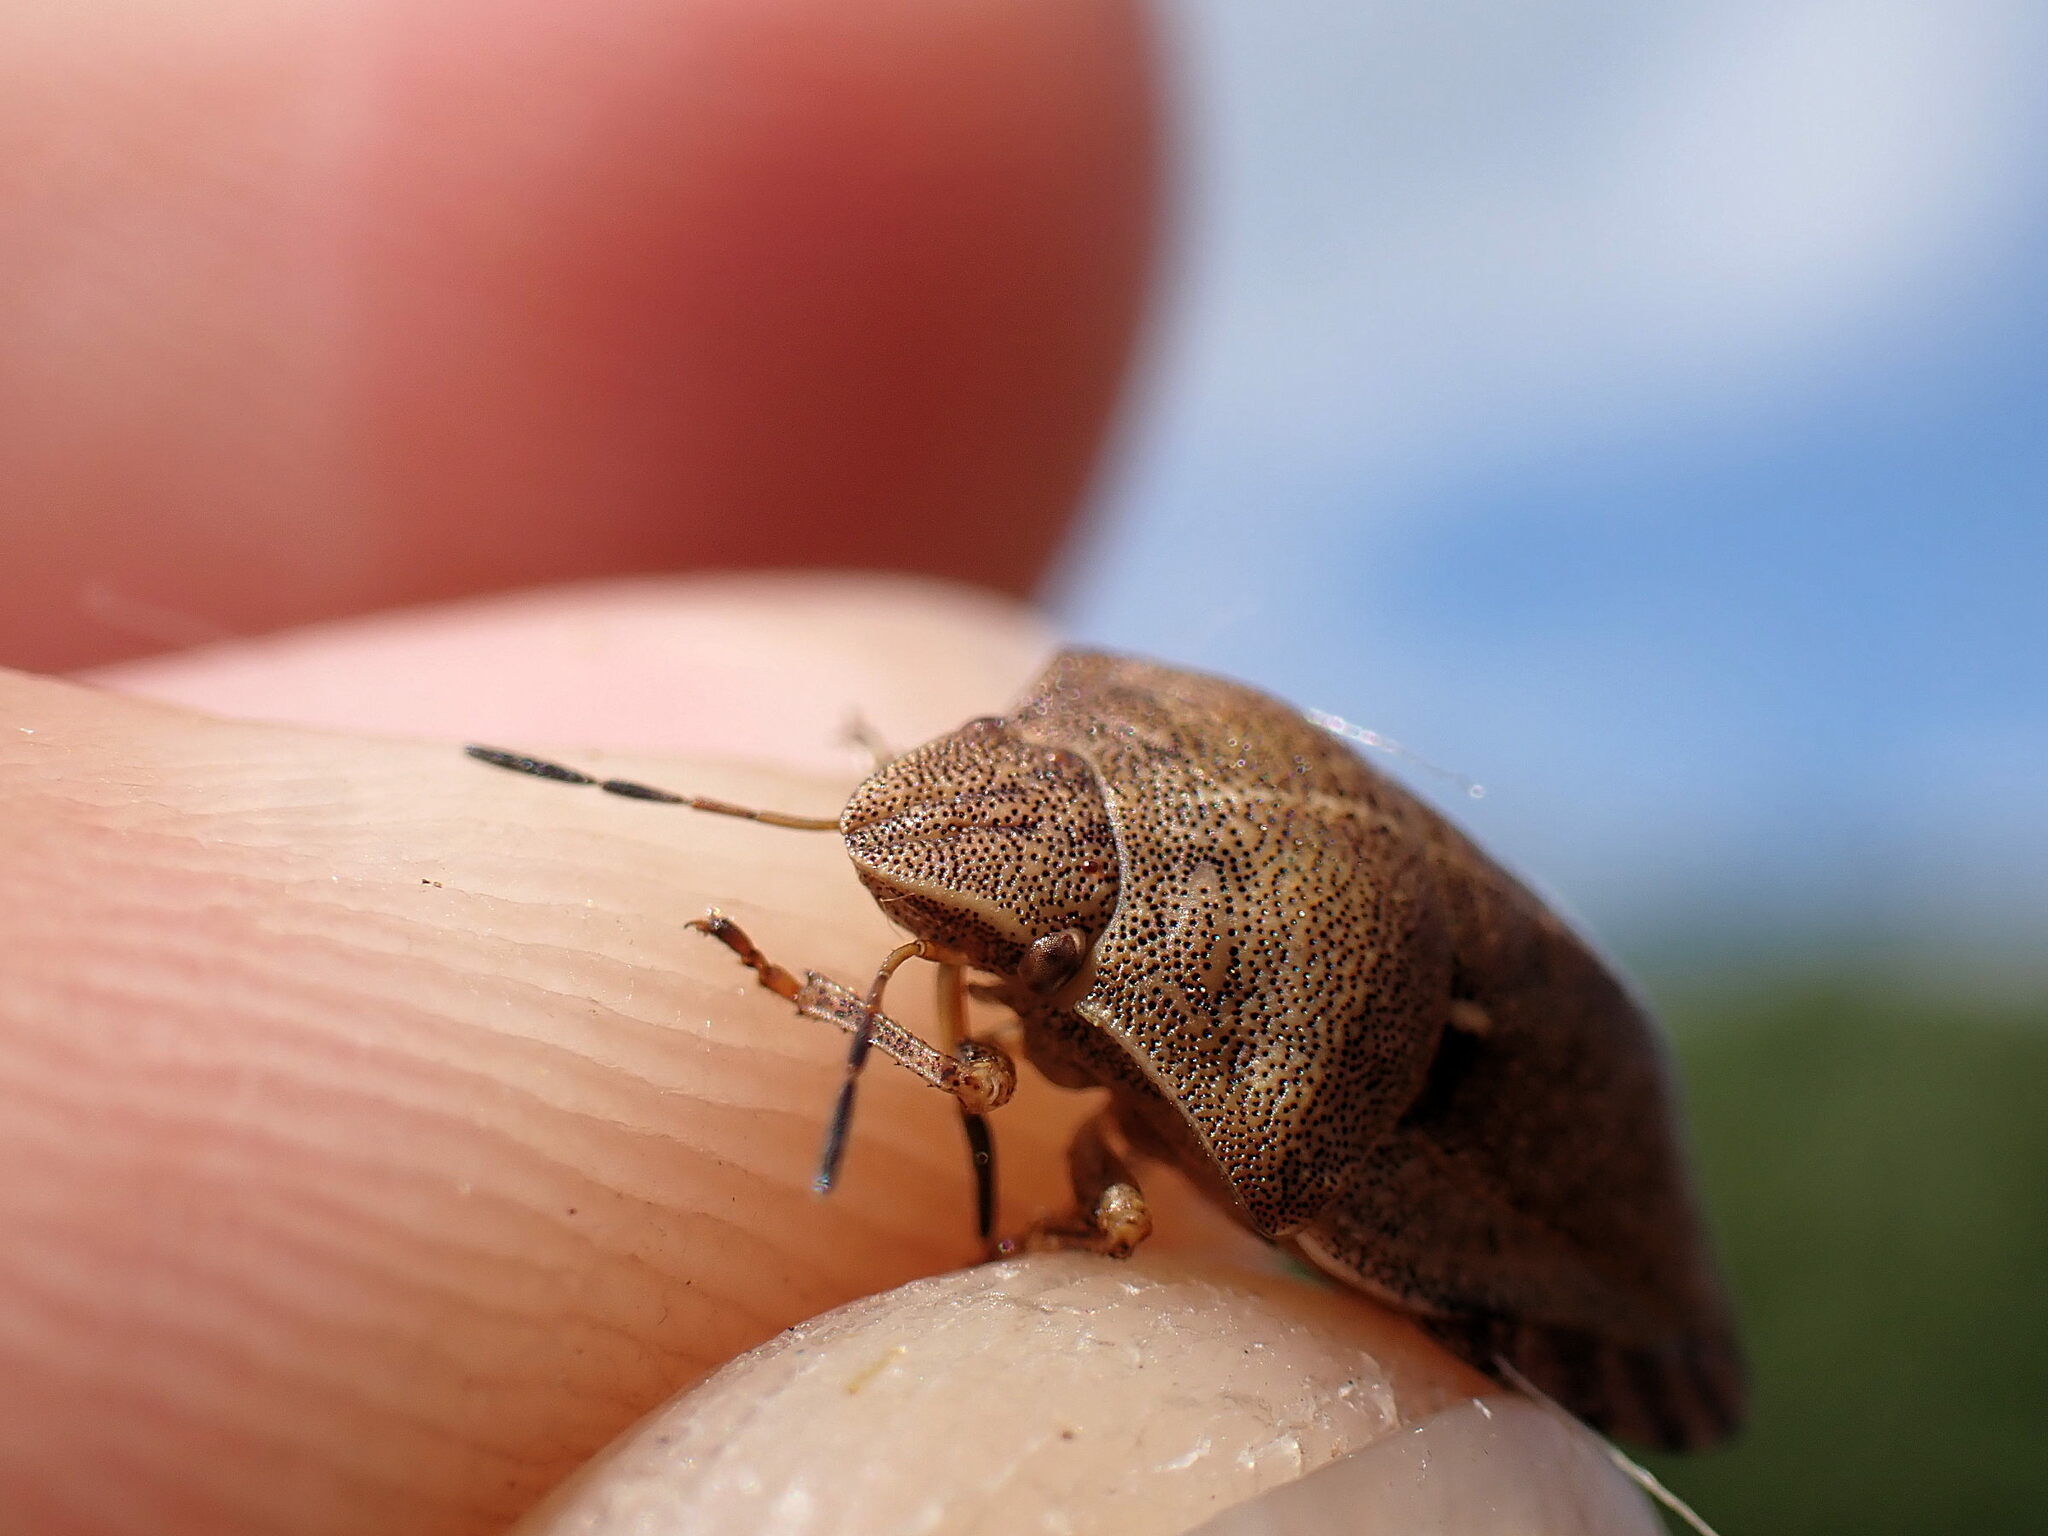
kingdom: Animalia
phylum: Arthropoda
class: Insecta
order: Hemiptera
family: Scutelleridae
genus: Eurygaster
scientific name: Eurygaster testudinaria
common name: Tortoise bug
